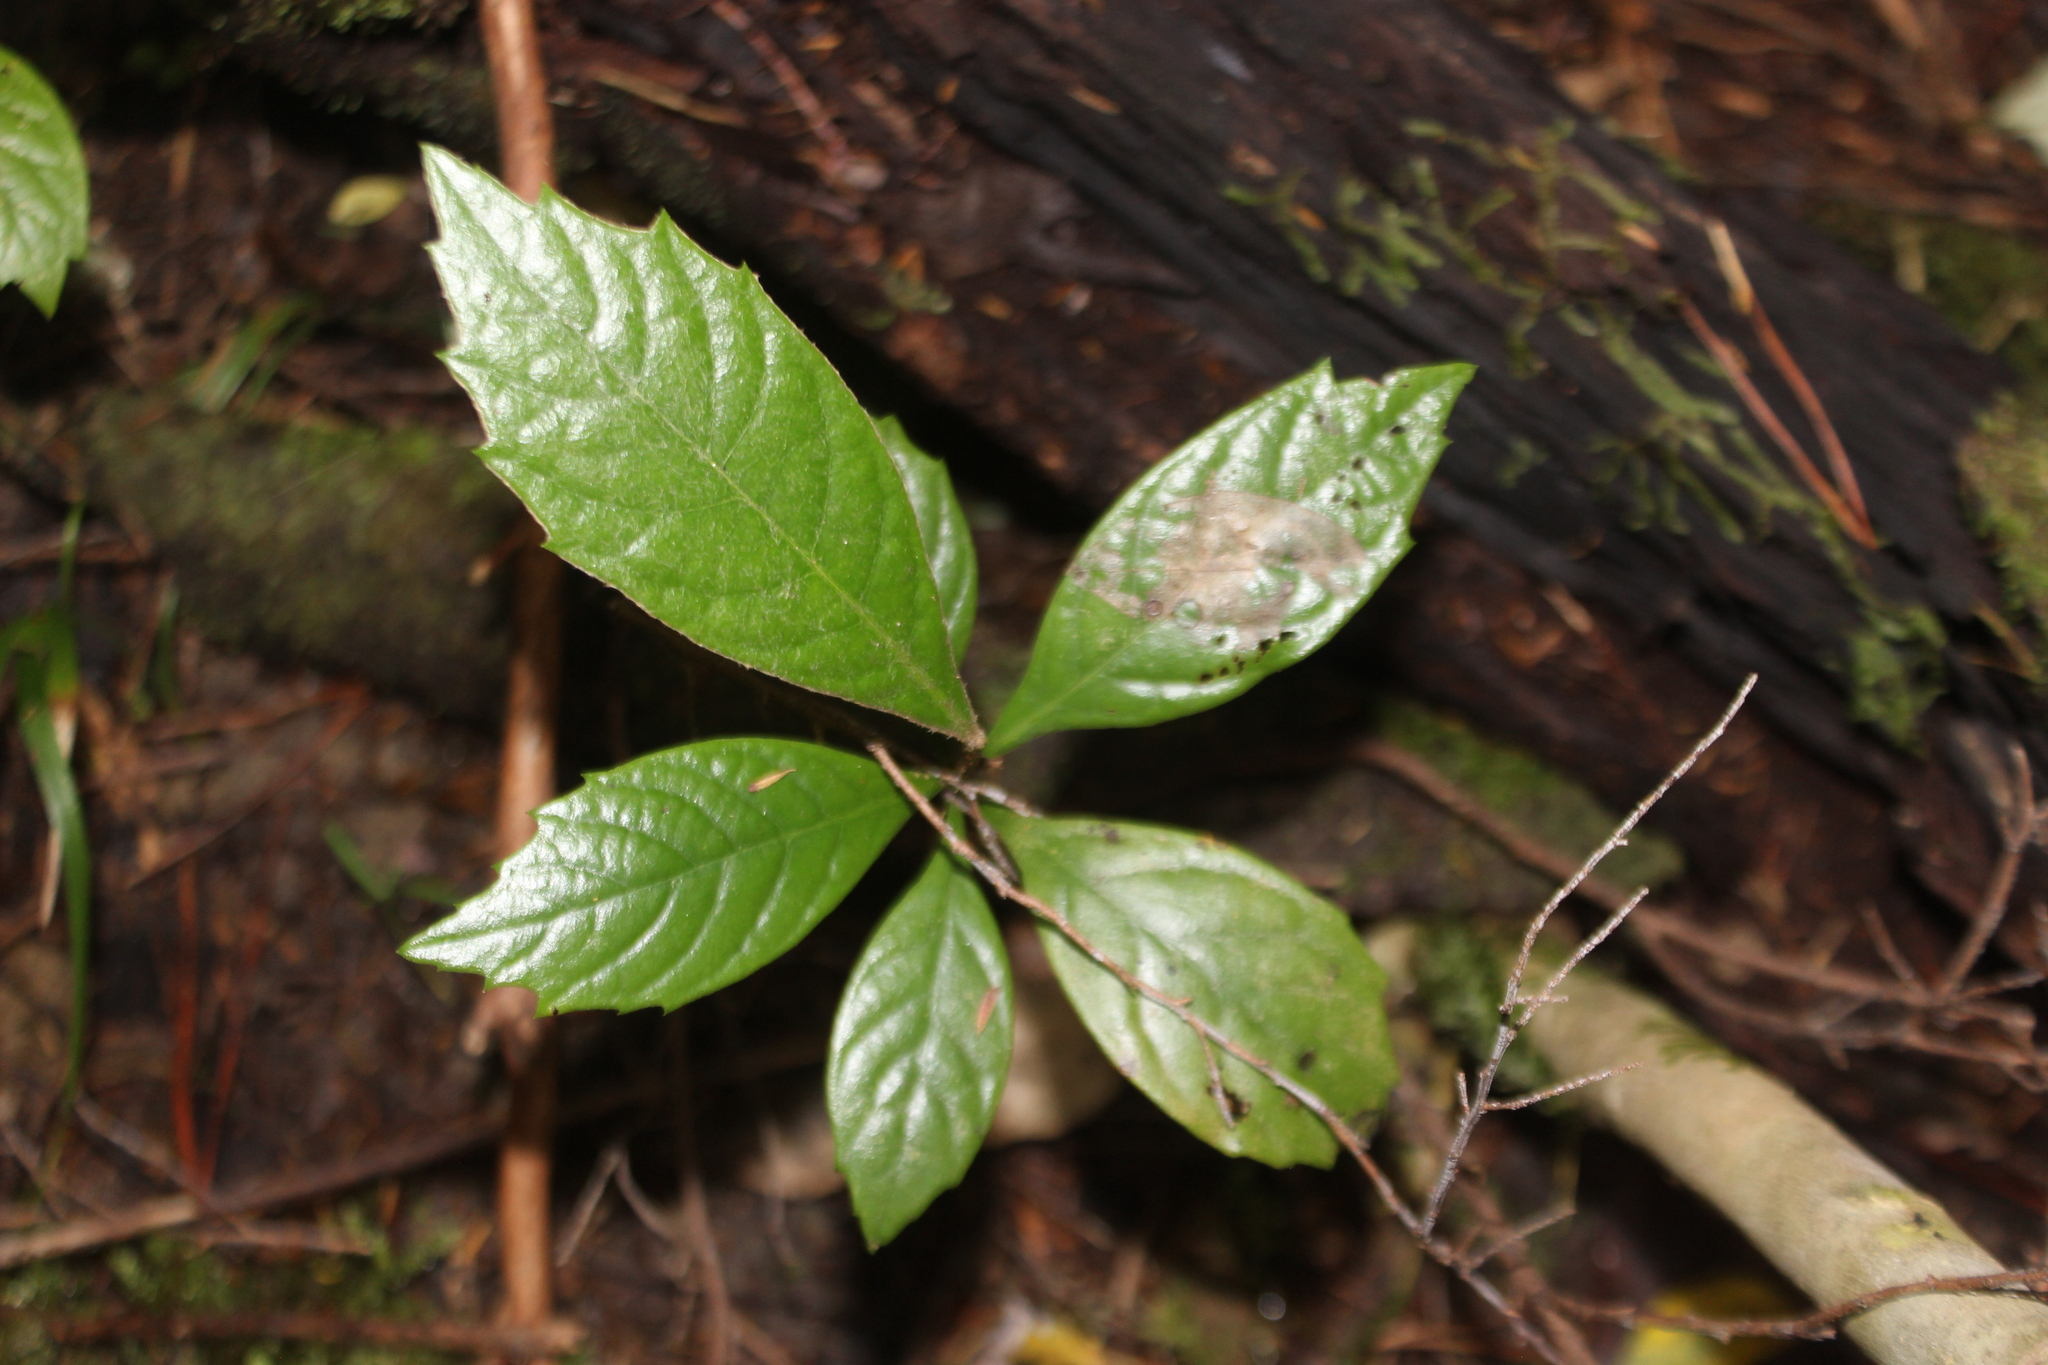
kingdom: Plantae
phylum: Tracheophyta
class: Magnoliopsida
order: Rosales
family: Rosaceae
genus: Rhaphiolepis
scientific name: Rhaphiolepis bibas
